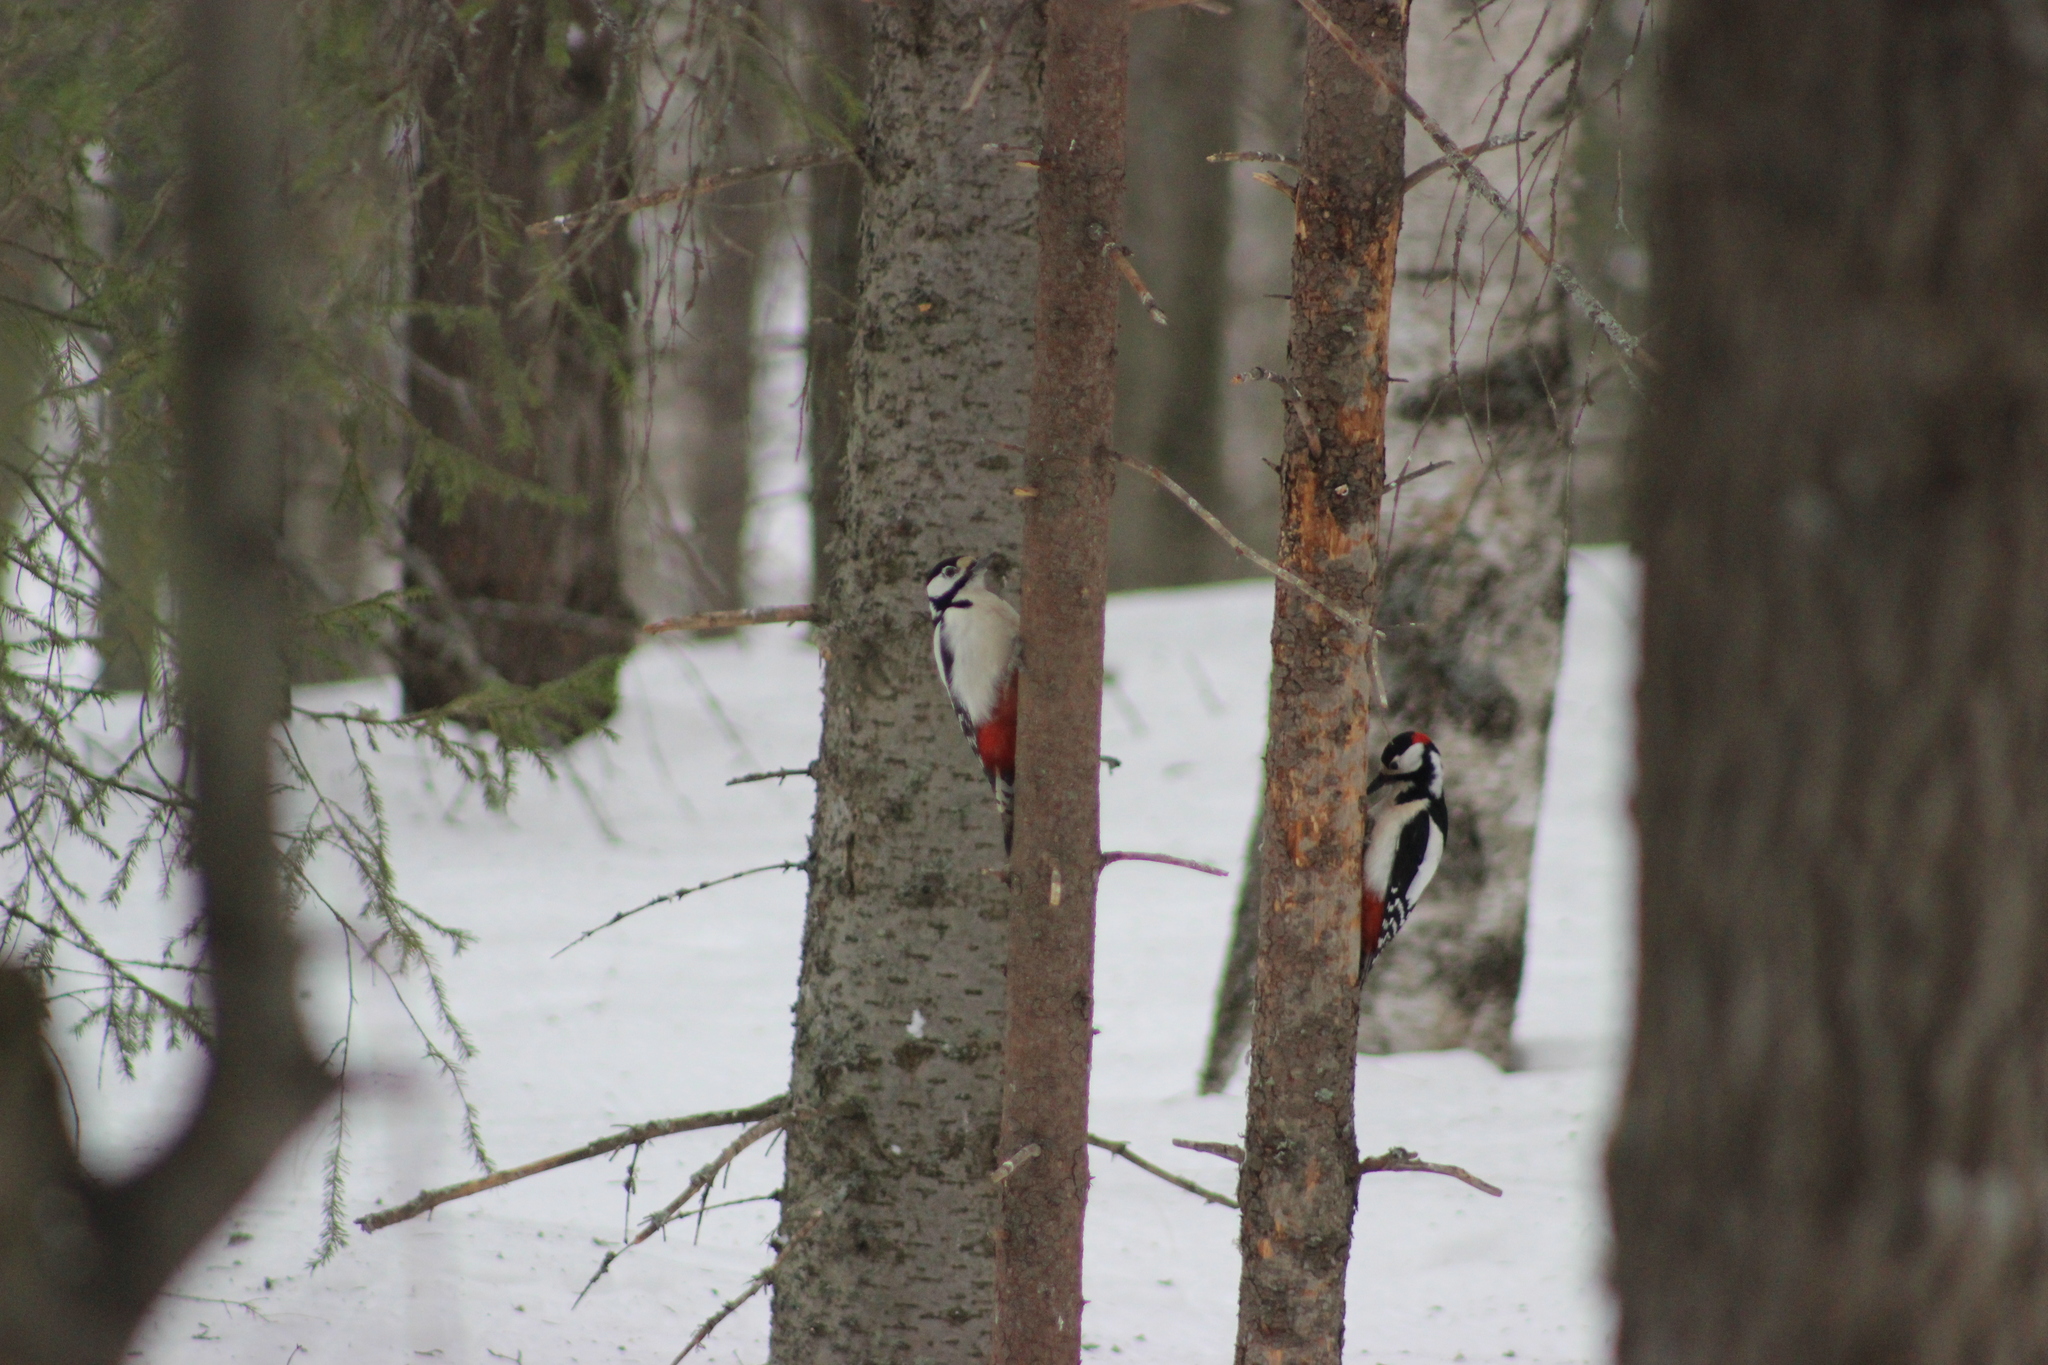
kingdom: Animalia
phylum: Chordata
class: Aves
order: Piciformes
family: Picidae
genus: Dendrocopos
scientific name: Dendrocopos major
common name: Great spotted woodpecker
